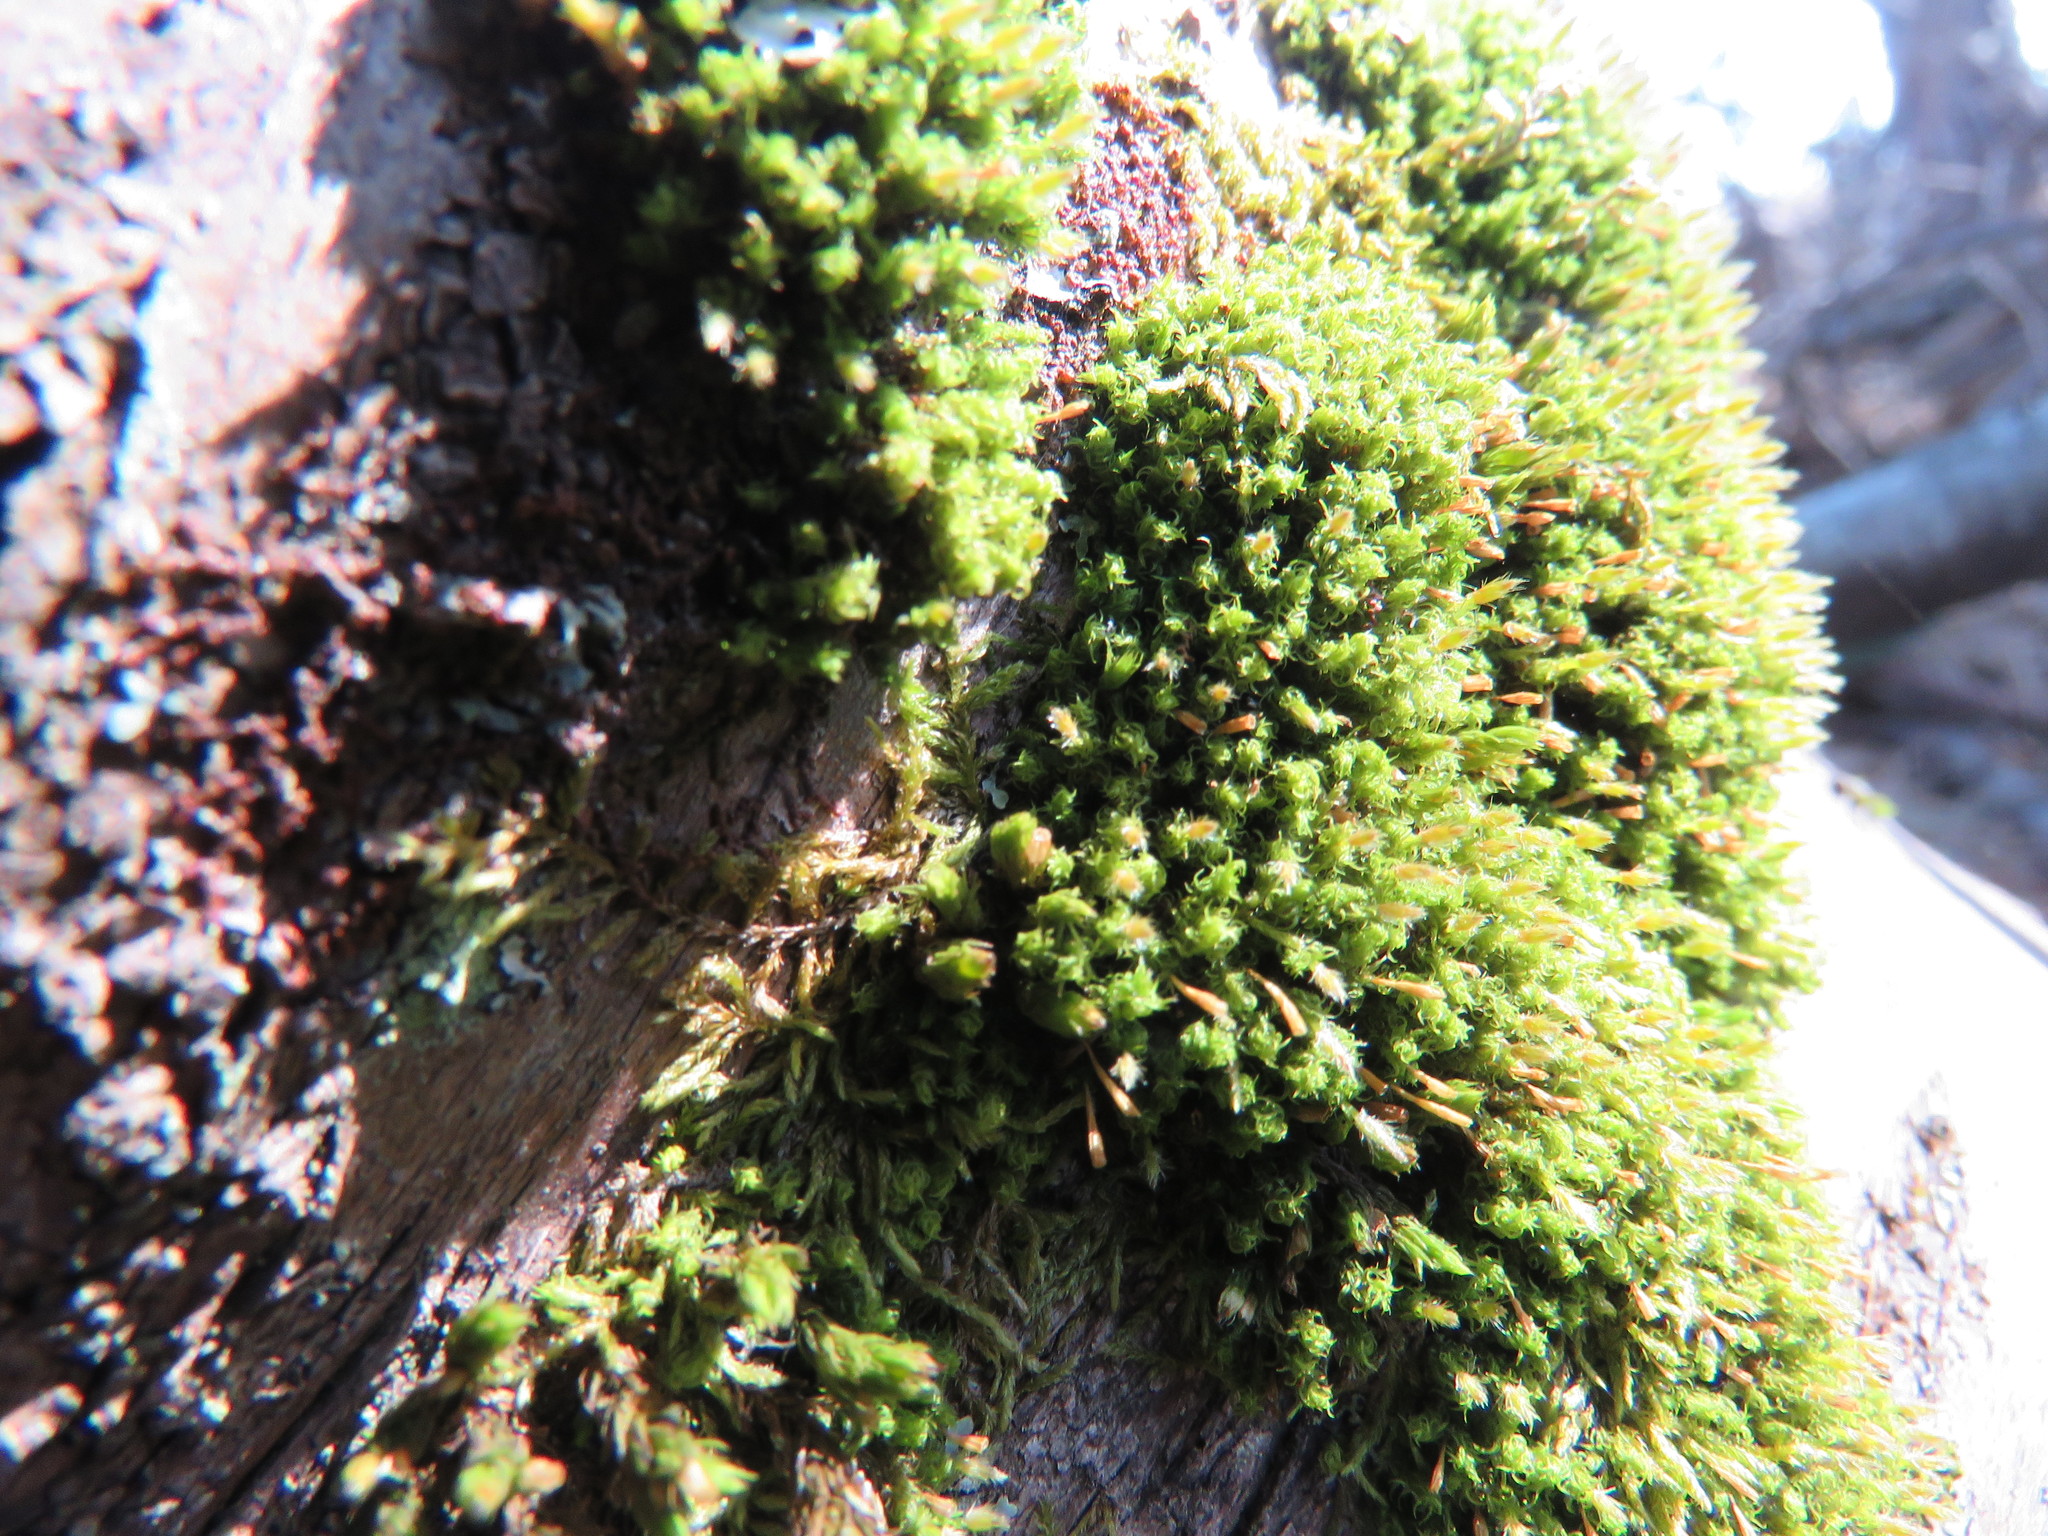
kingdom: Plantae
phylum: Bryophyta
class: Bryopsida
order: Orthotrichales
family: Orthotrichaceae
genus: Ulota
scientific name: Ulota crispa
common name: Crisped pincushion moss
